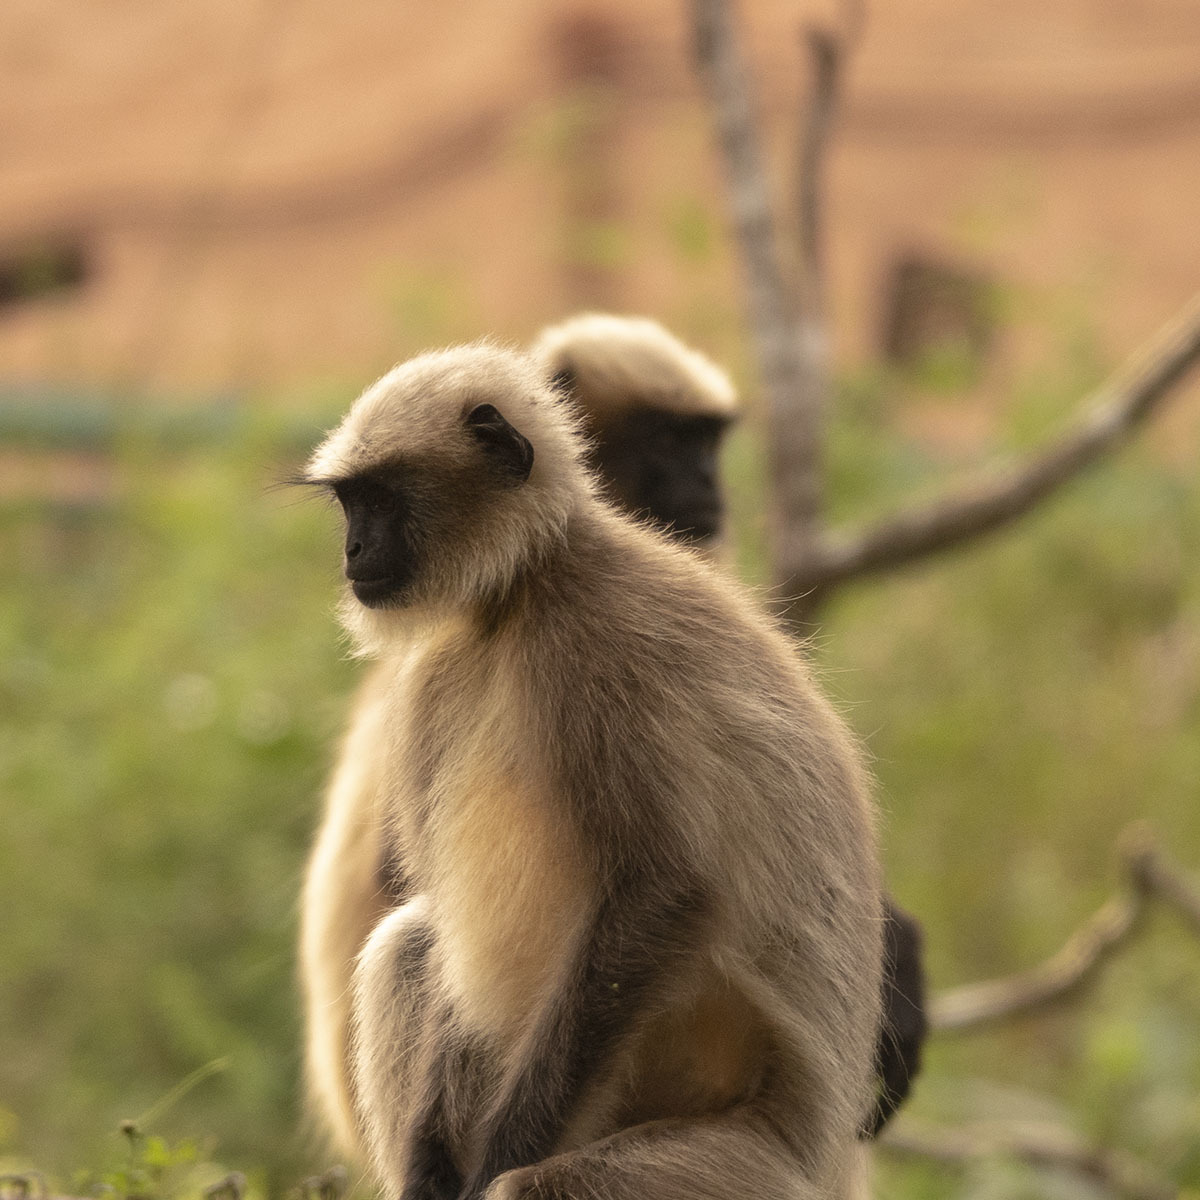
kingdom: Animalia
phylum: Chordata
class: Mammalia
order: Primates
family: Cercopithecidae
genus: Semnopithecus
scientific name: Semnopithecus hypoleucos
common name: Black-footed gray langur
